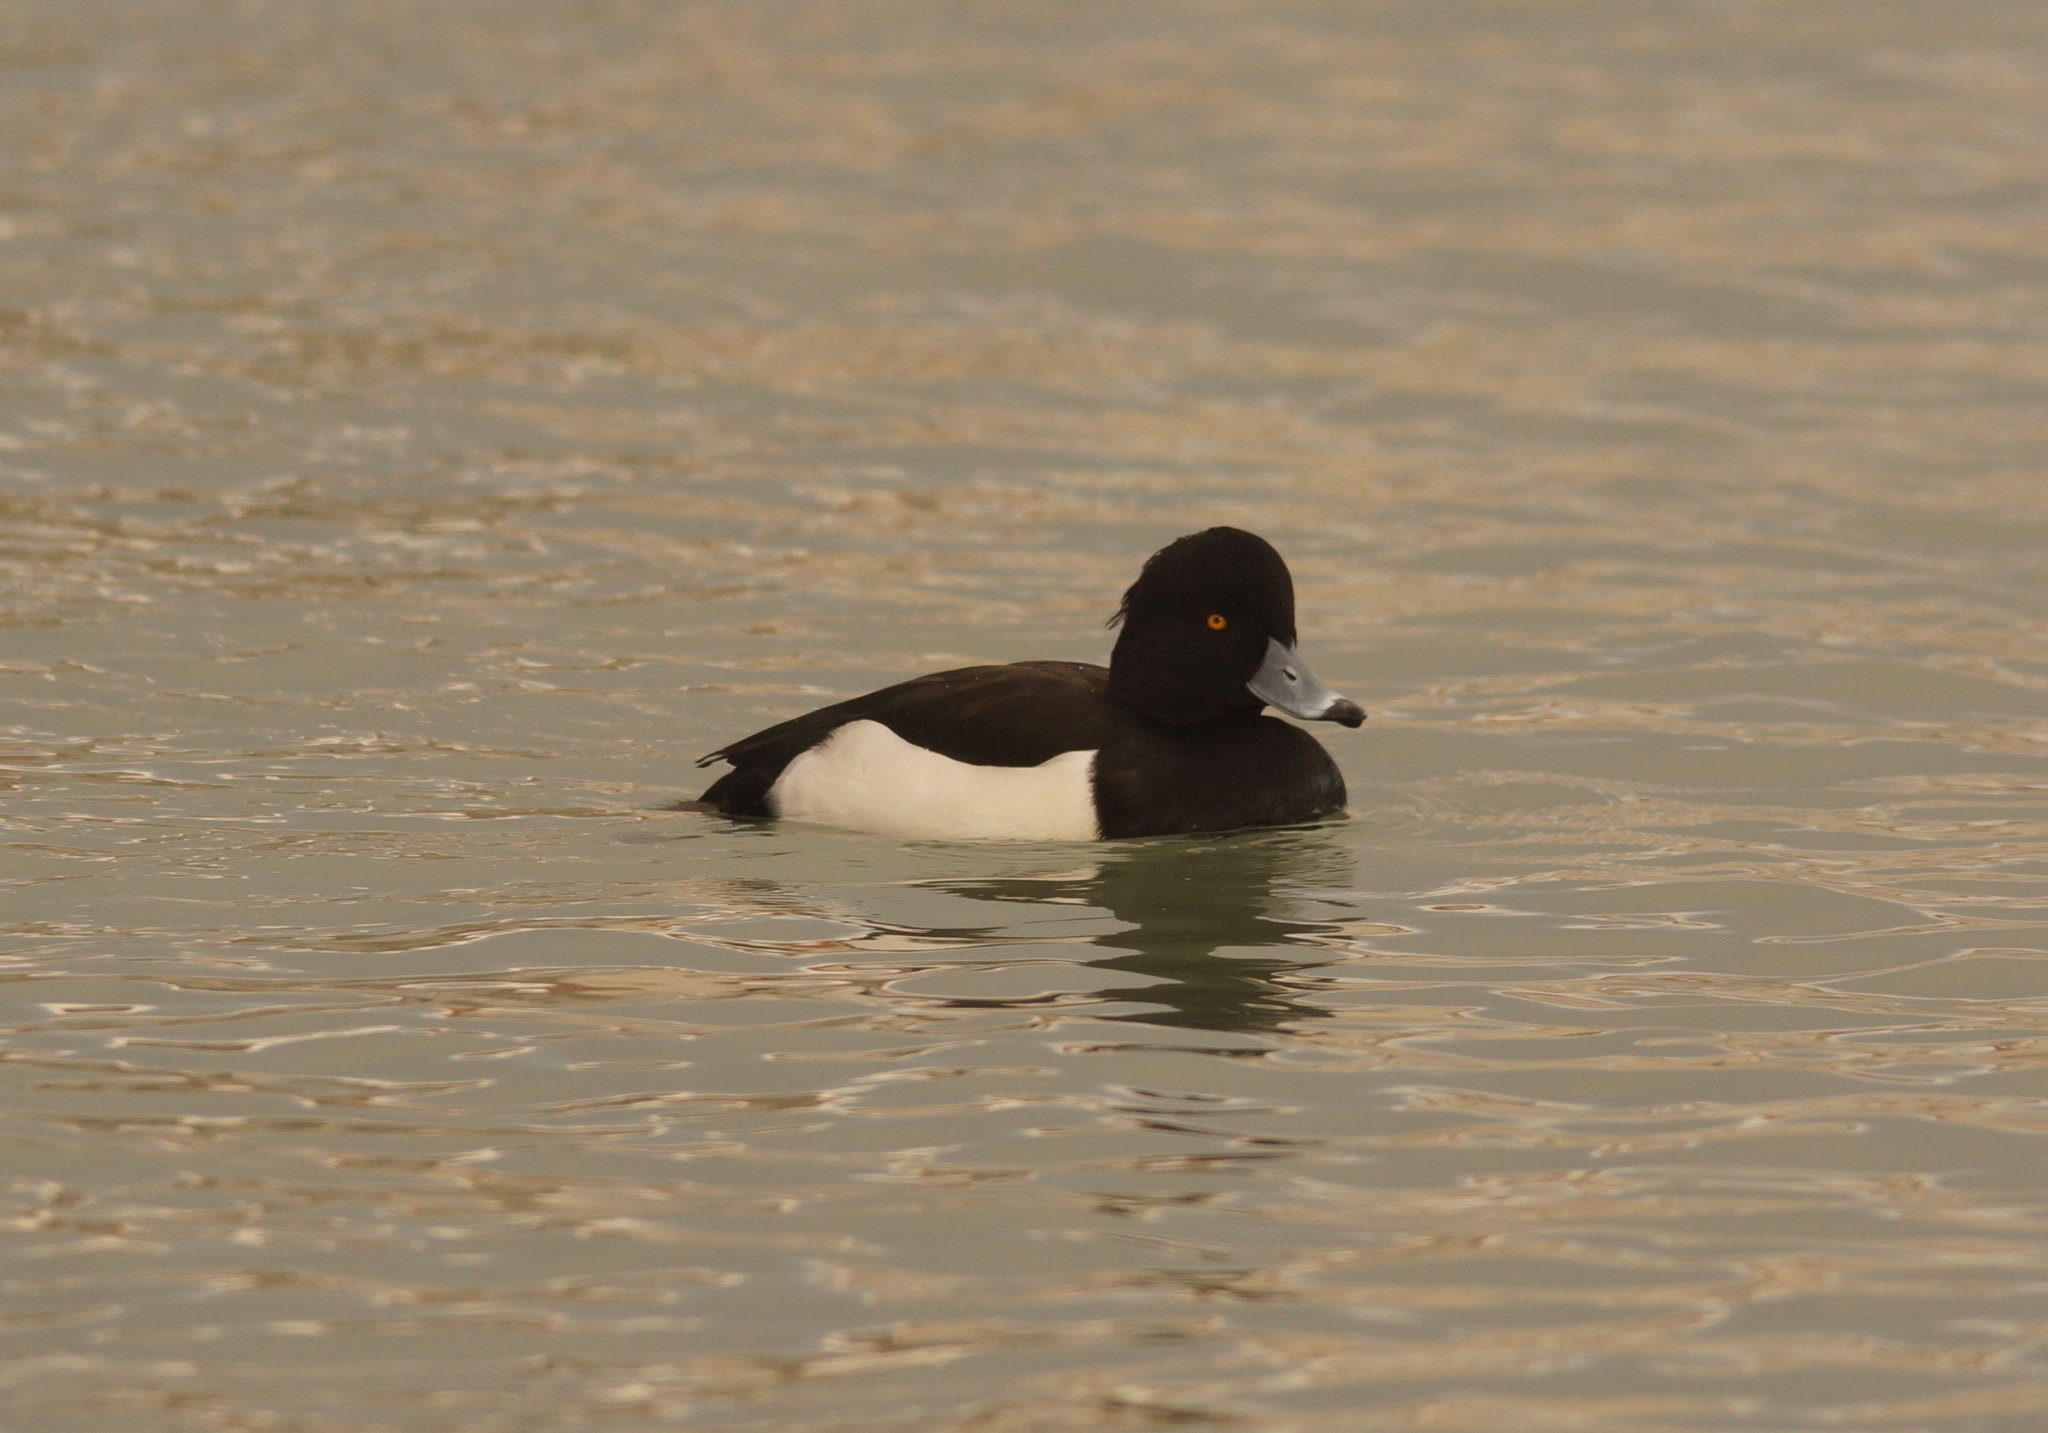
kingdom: Animalia
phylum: Chordata
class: Aves
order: Anseriformes
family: Anatidae
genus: Aythya
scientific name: Aythya fuligula
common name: Tufted duck
